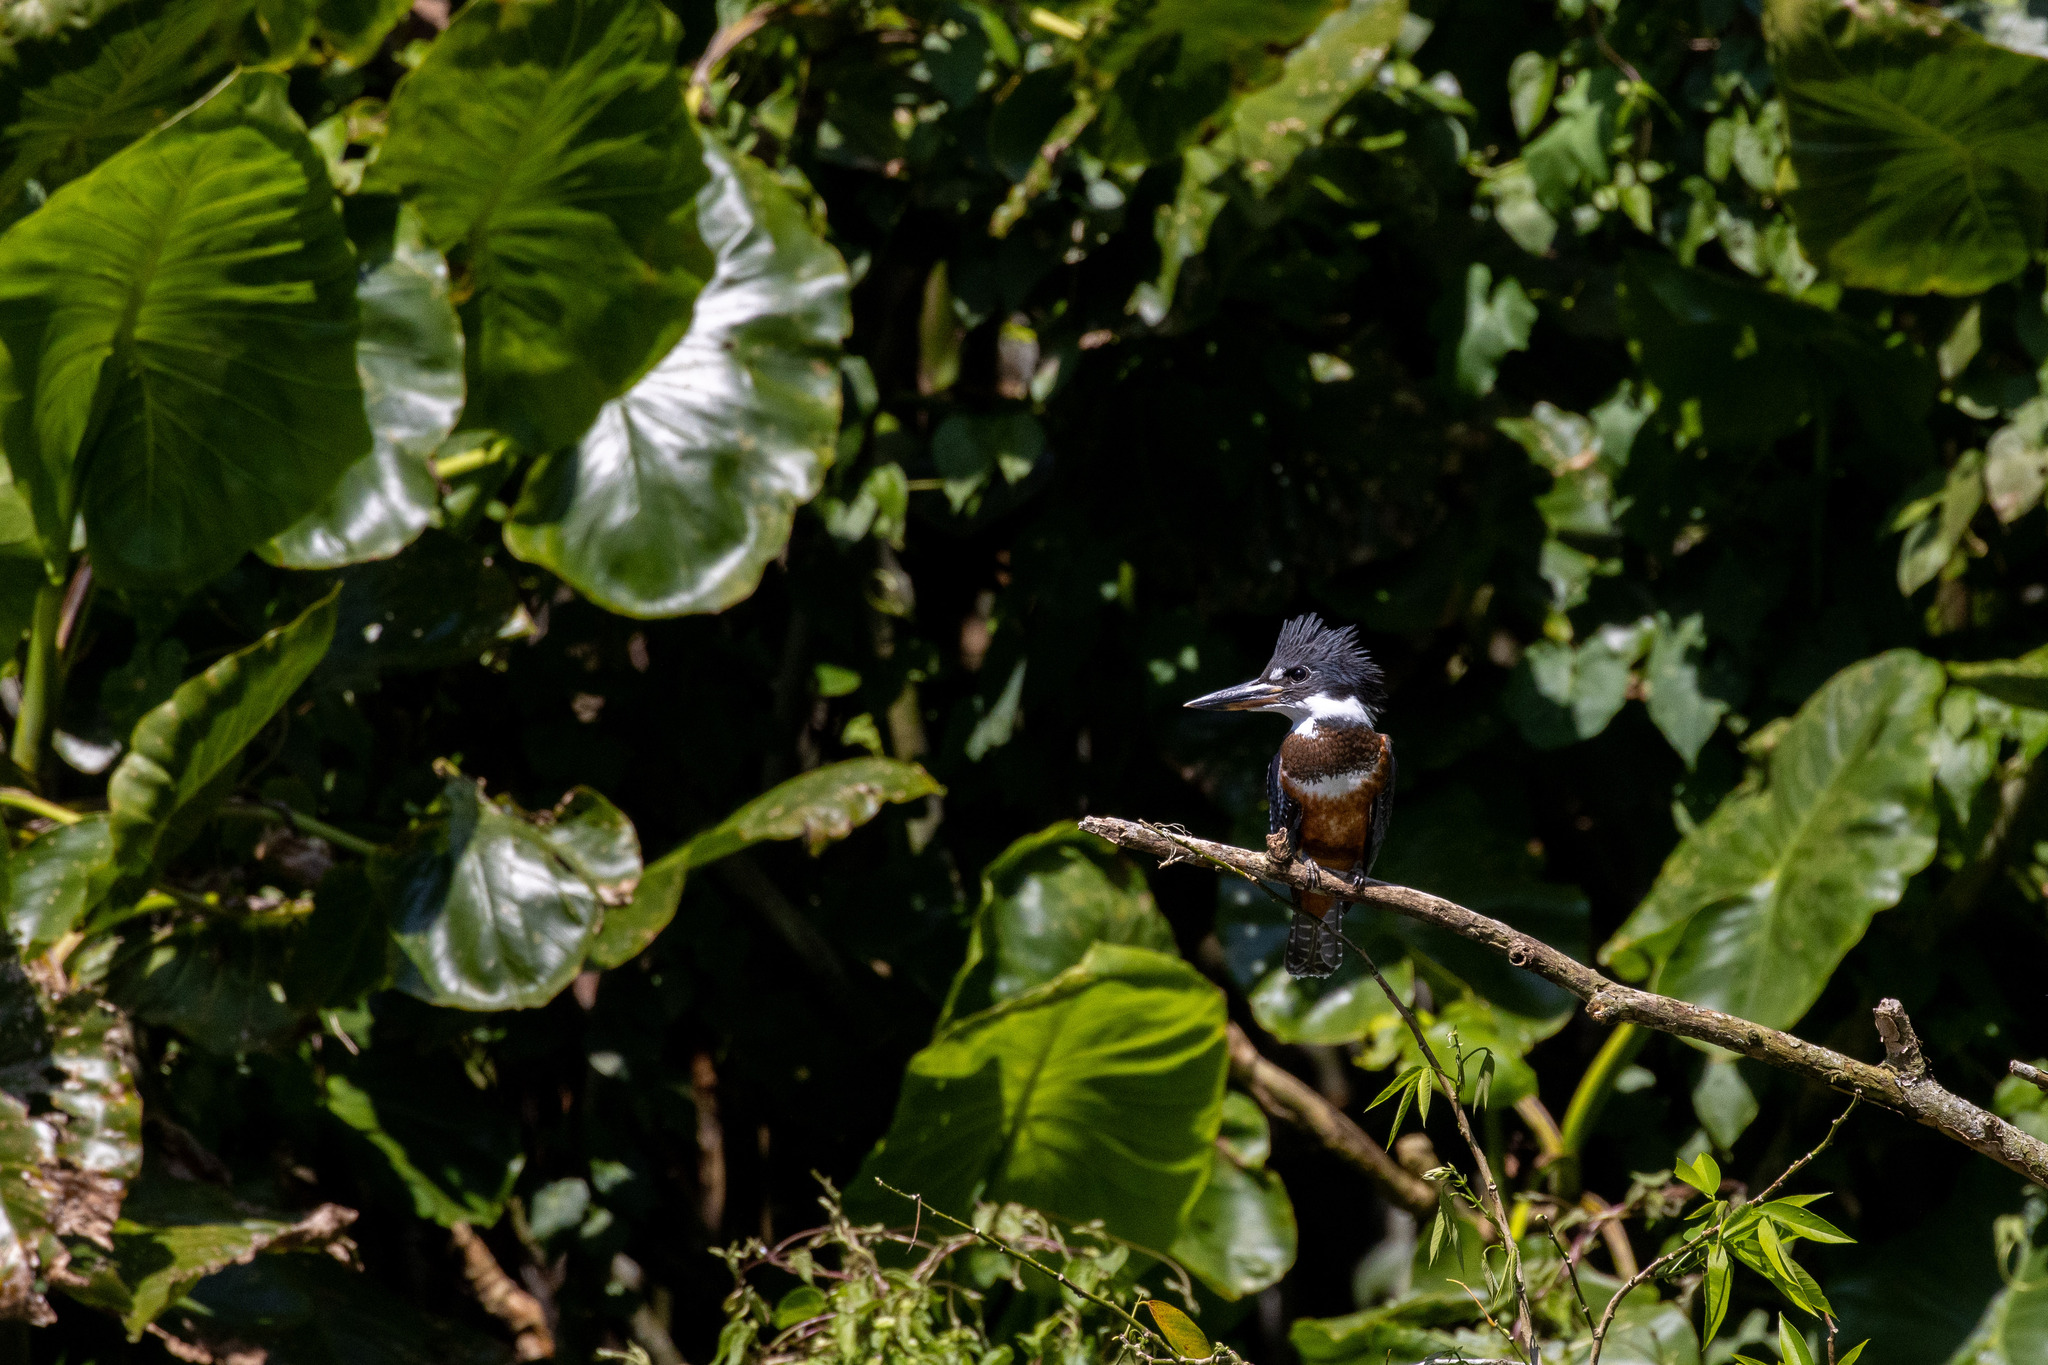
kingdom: Animalia
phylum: Chordata
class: Aves
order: Coraciiformes
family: Alcedinidae
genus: Megaceryle
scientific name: Megaceryle torquata
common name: Ringed kingfisher
